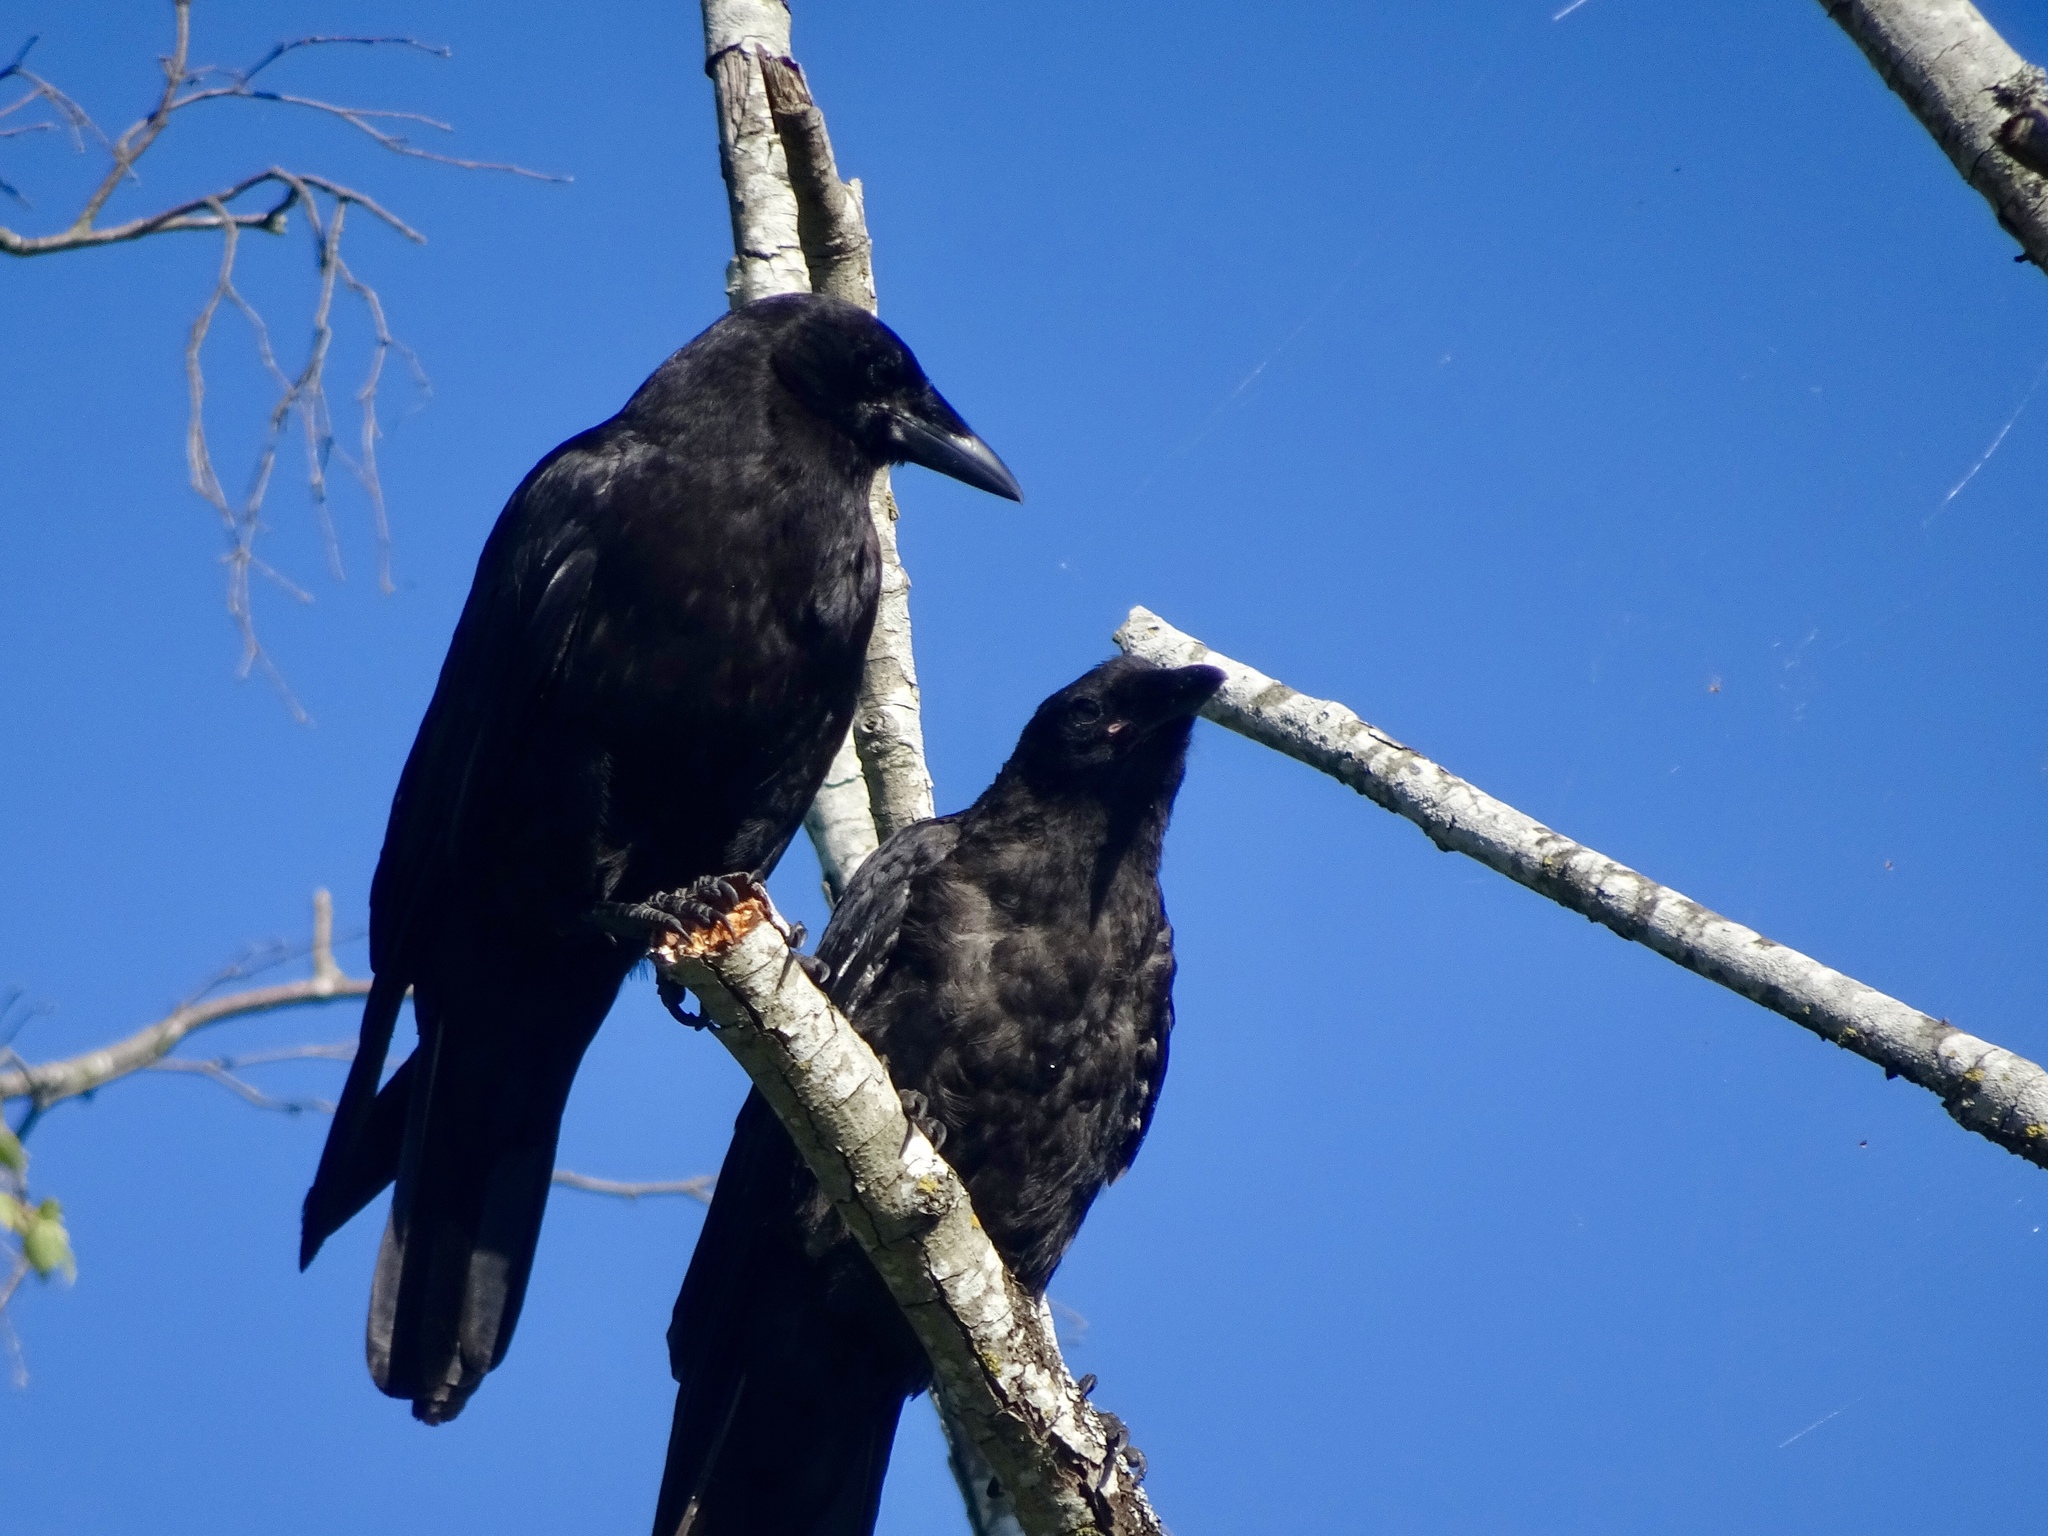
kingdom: Animalia
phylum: Chordata
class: Aves
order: Passeriformes
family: Corvidae
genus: Corvus
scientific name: Corvus brachyrhynchos
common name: American crow
